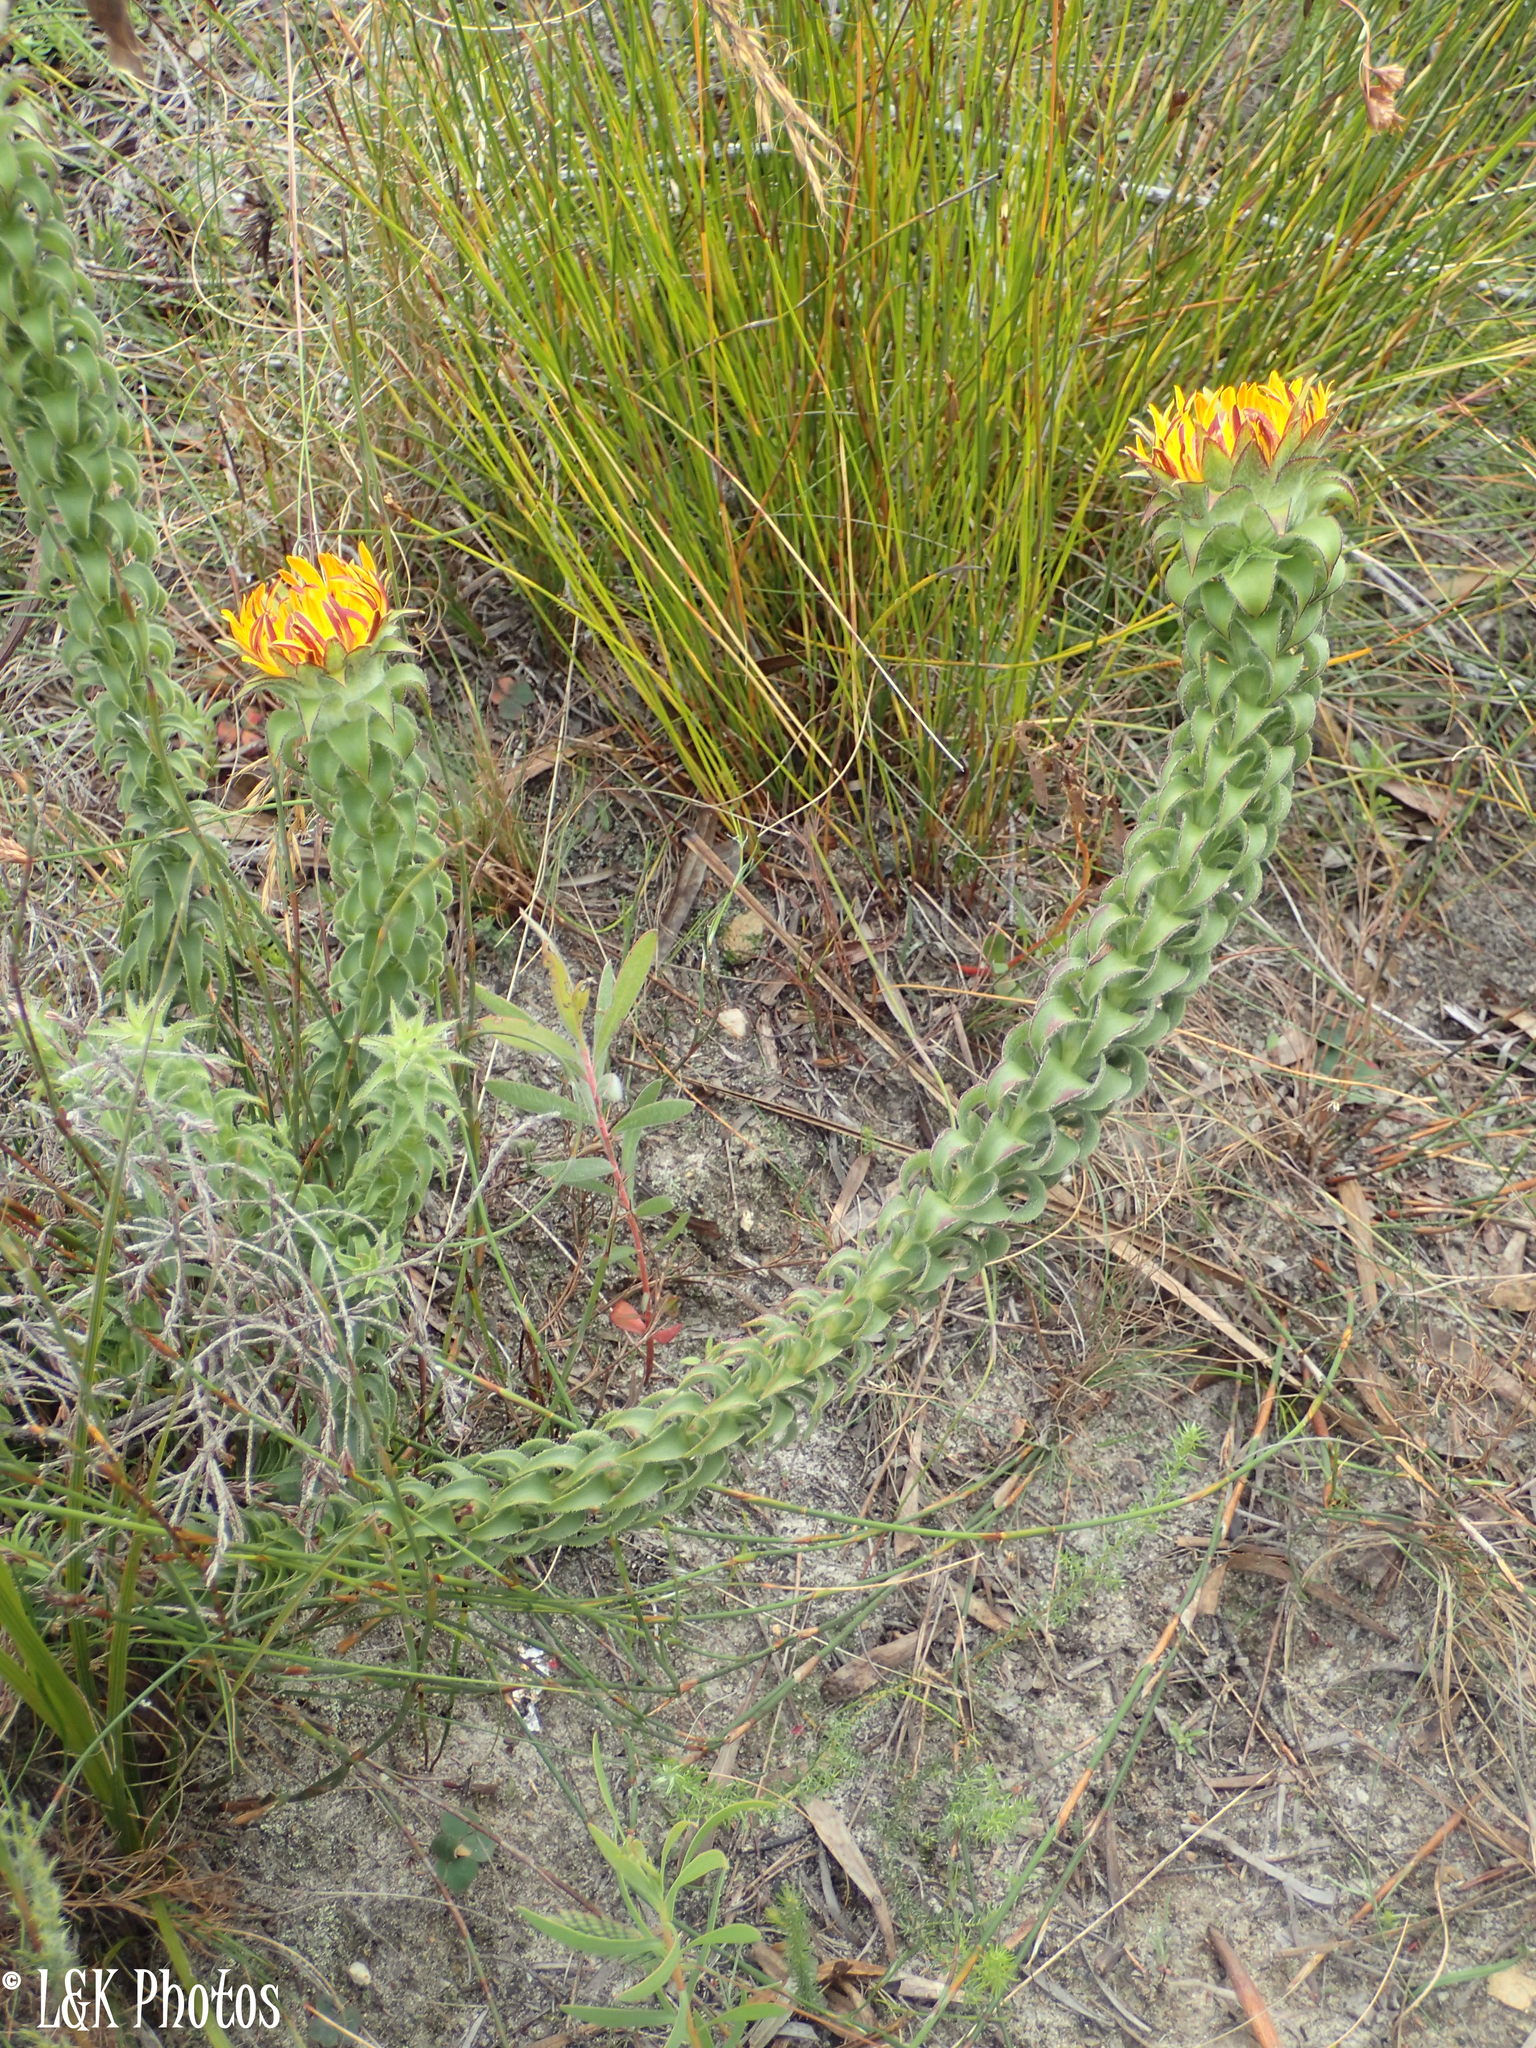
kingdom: Plantae
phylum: Tracheophyta
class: Magnoliopsida
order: Asterales
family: Asteraceae
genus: Oedera
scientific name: Oedera imbricata
